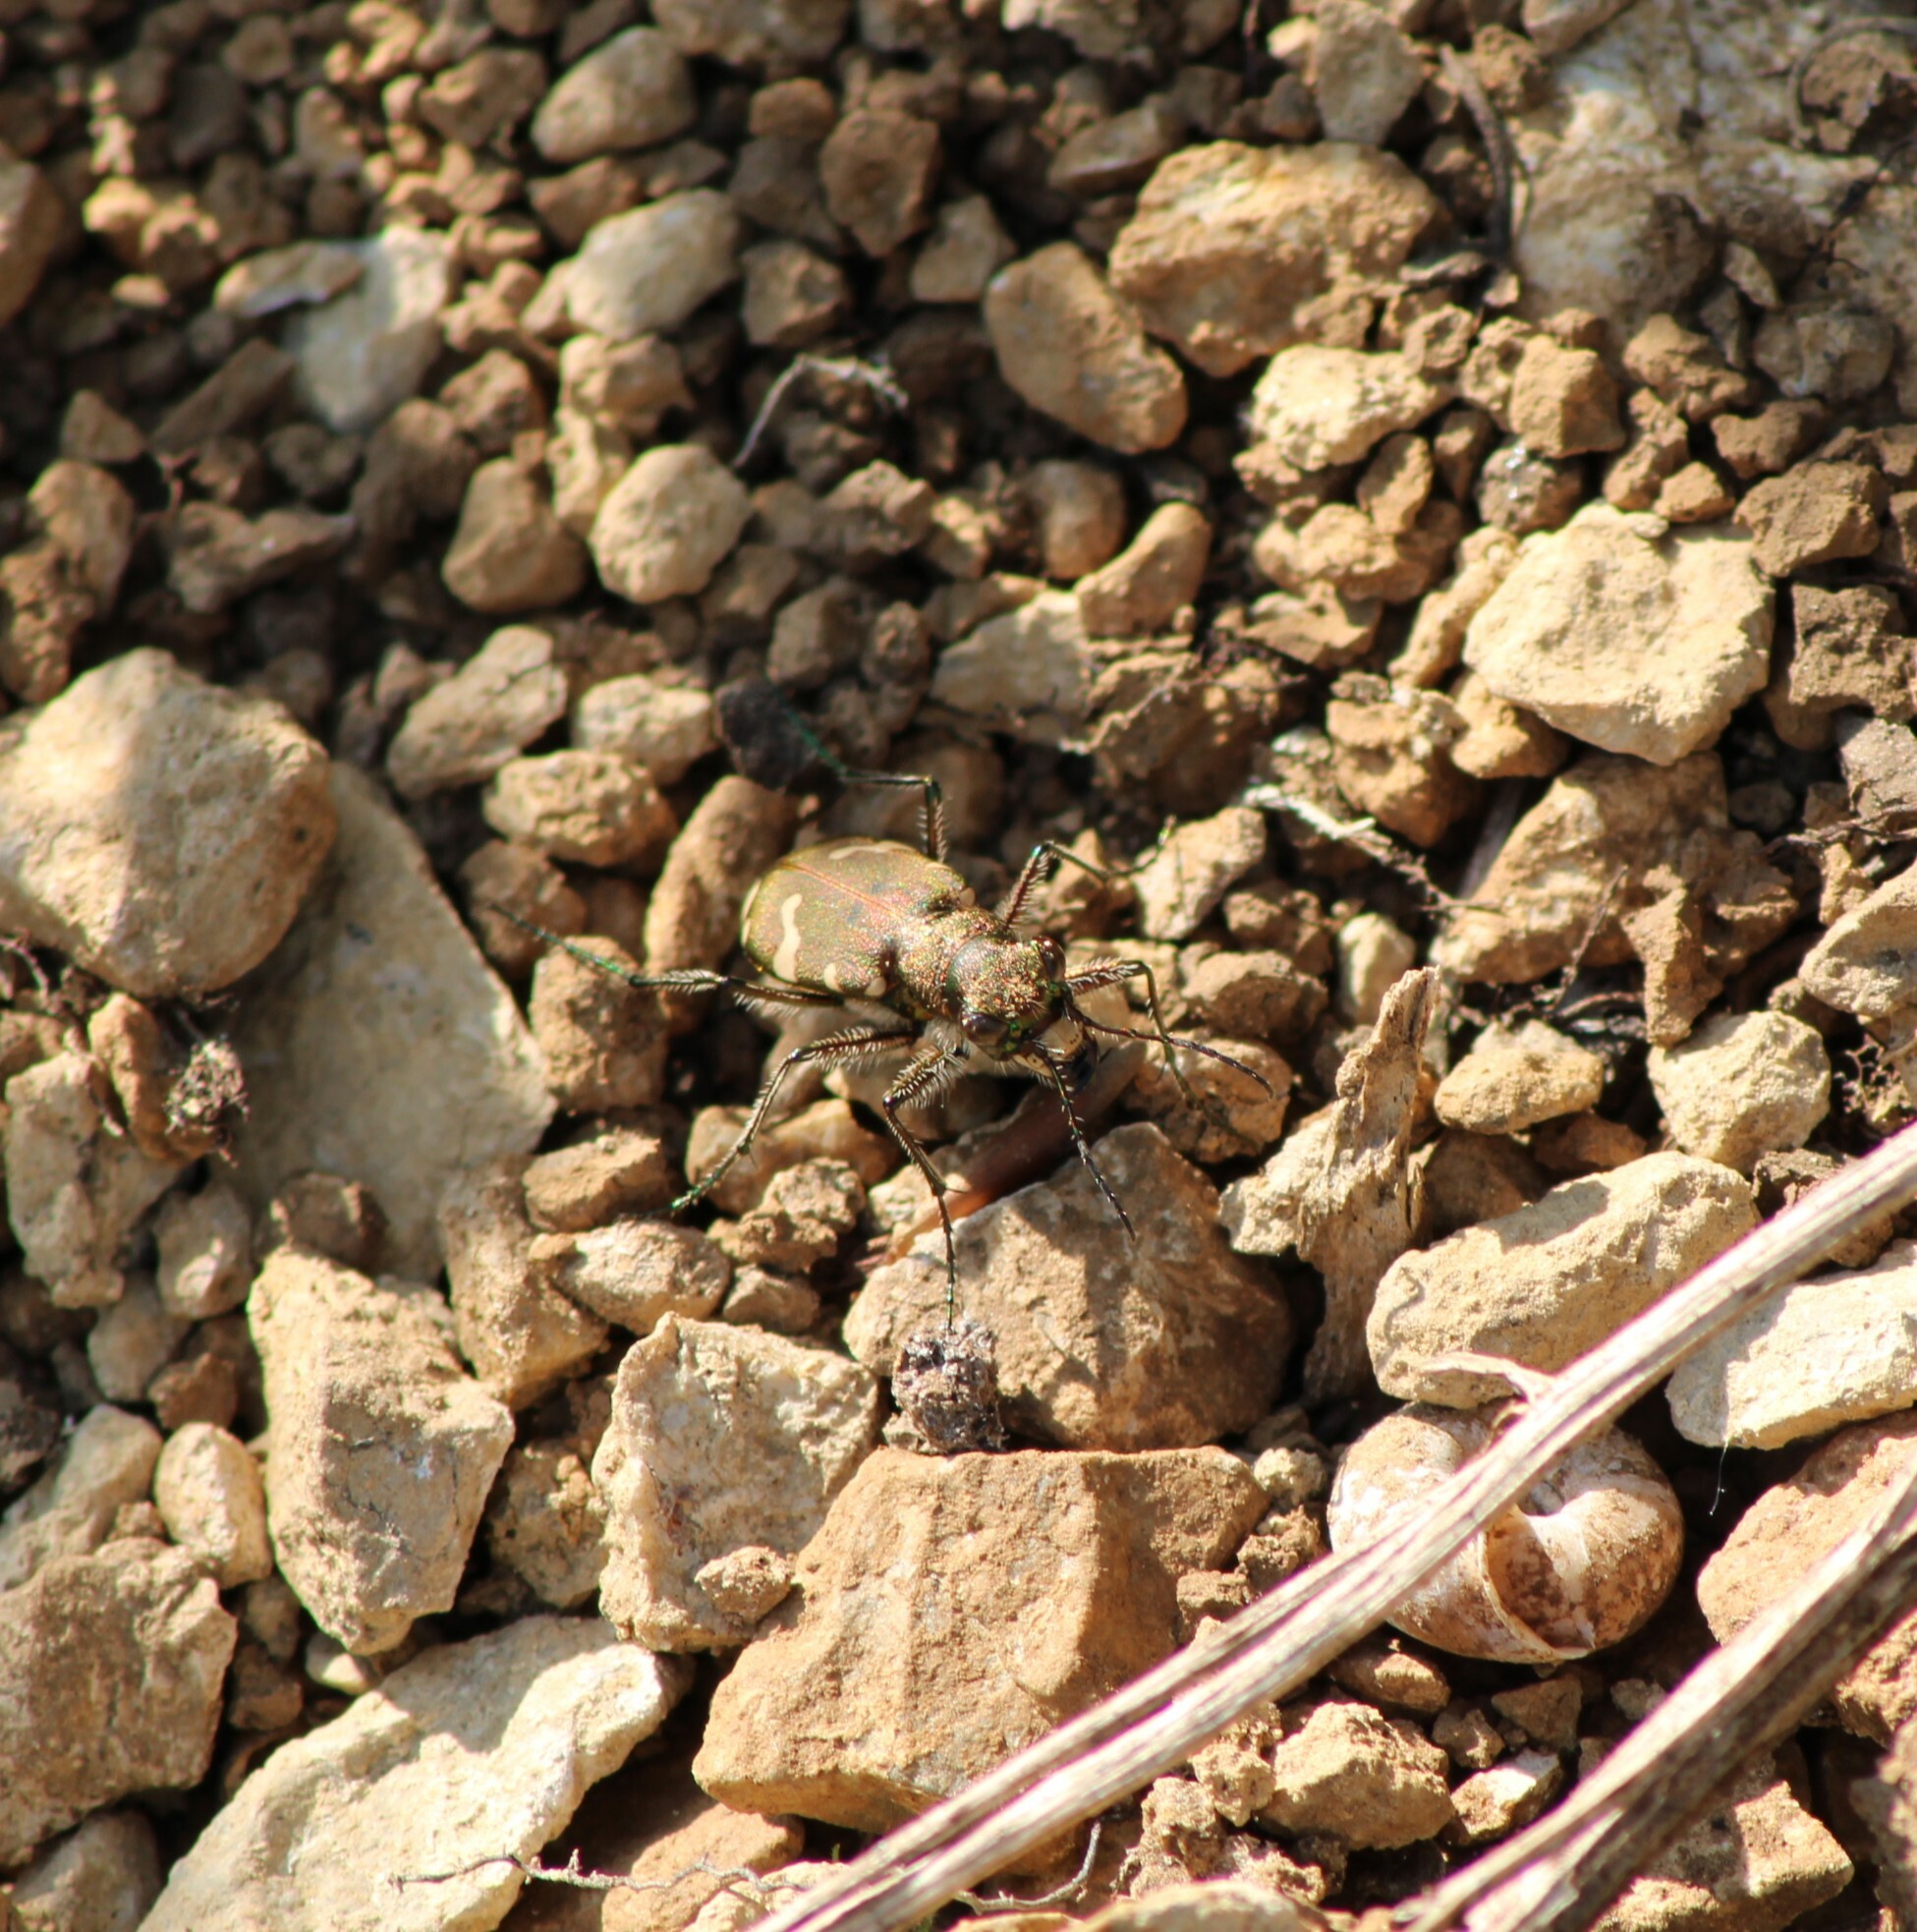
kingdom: Animalia
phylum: Arthropoda
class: Insecta
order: Coleoptera
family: Carabidae
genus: Cicindela
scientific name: Cicindela sylvicola
